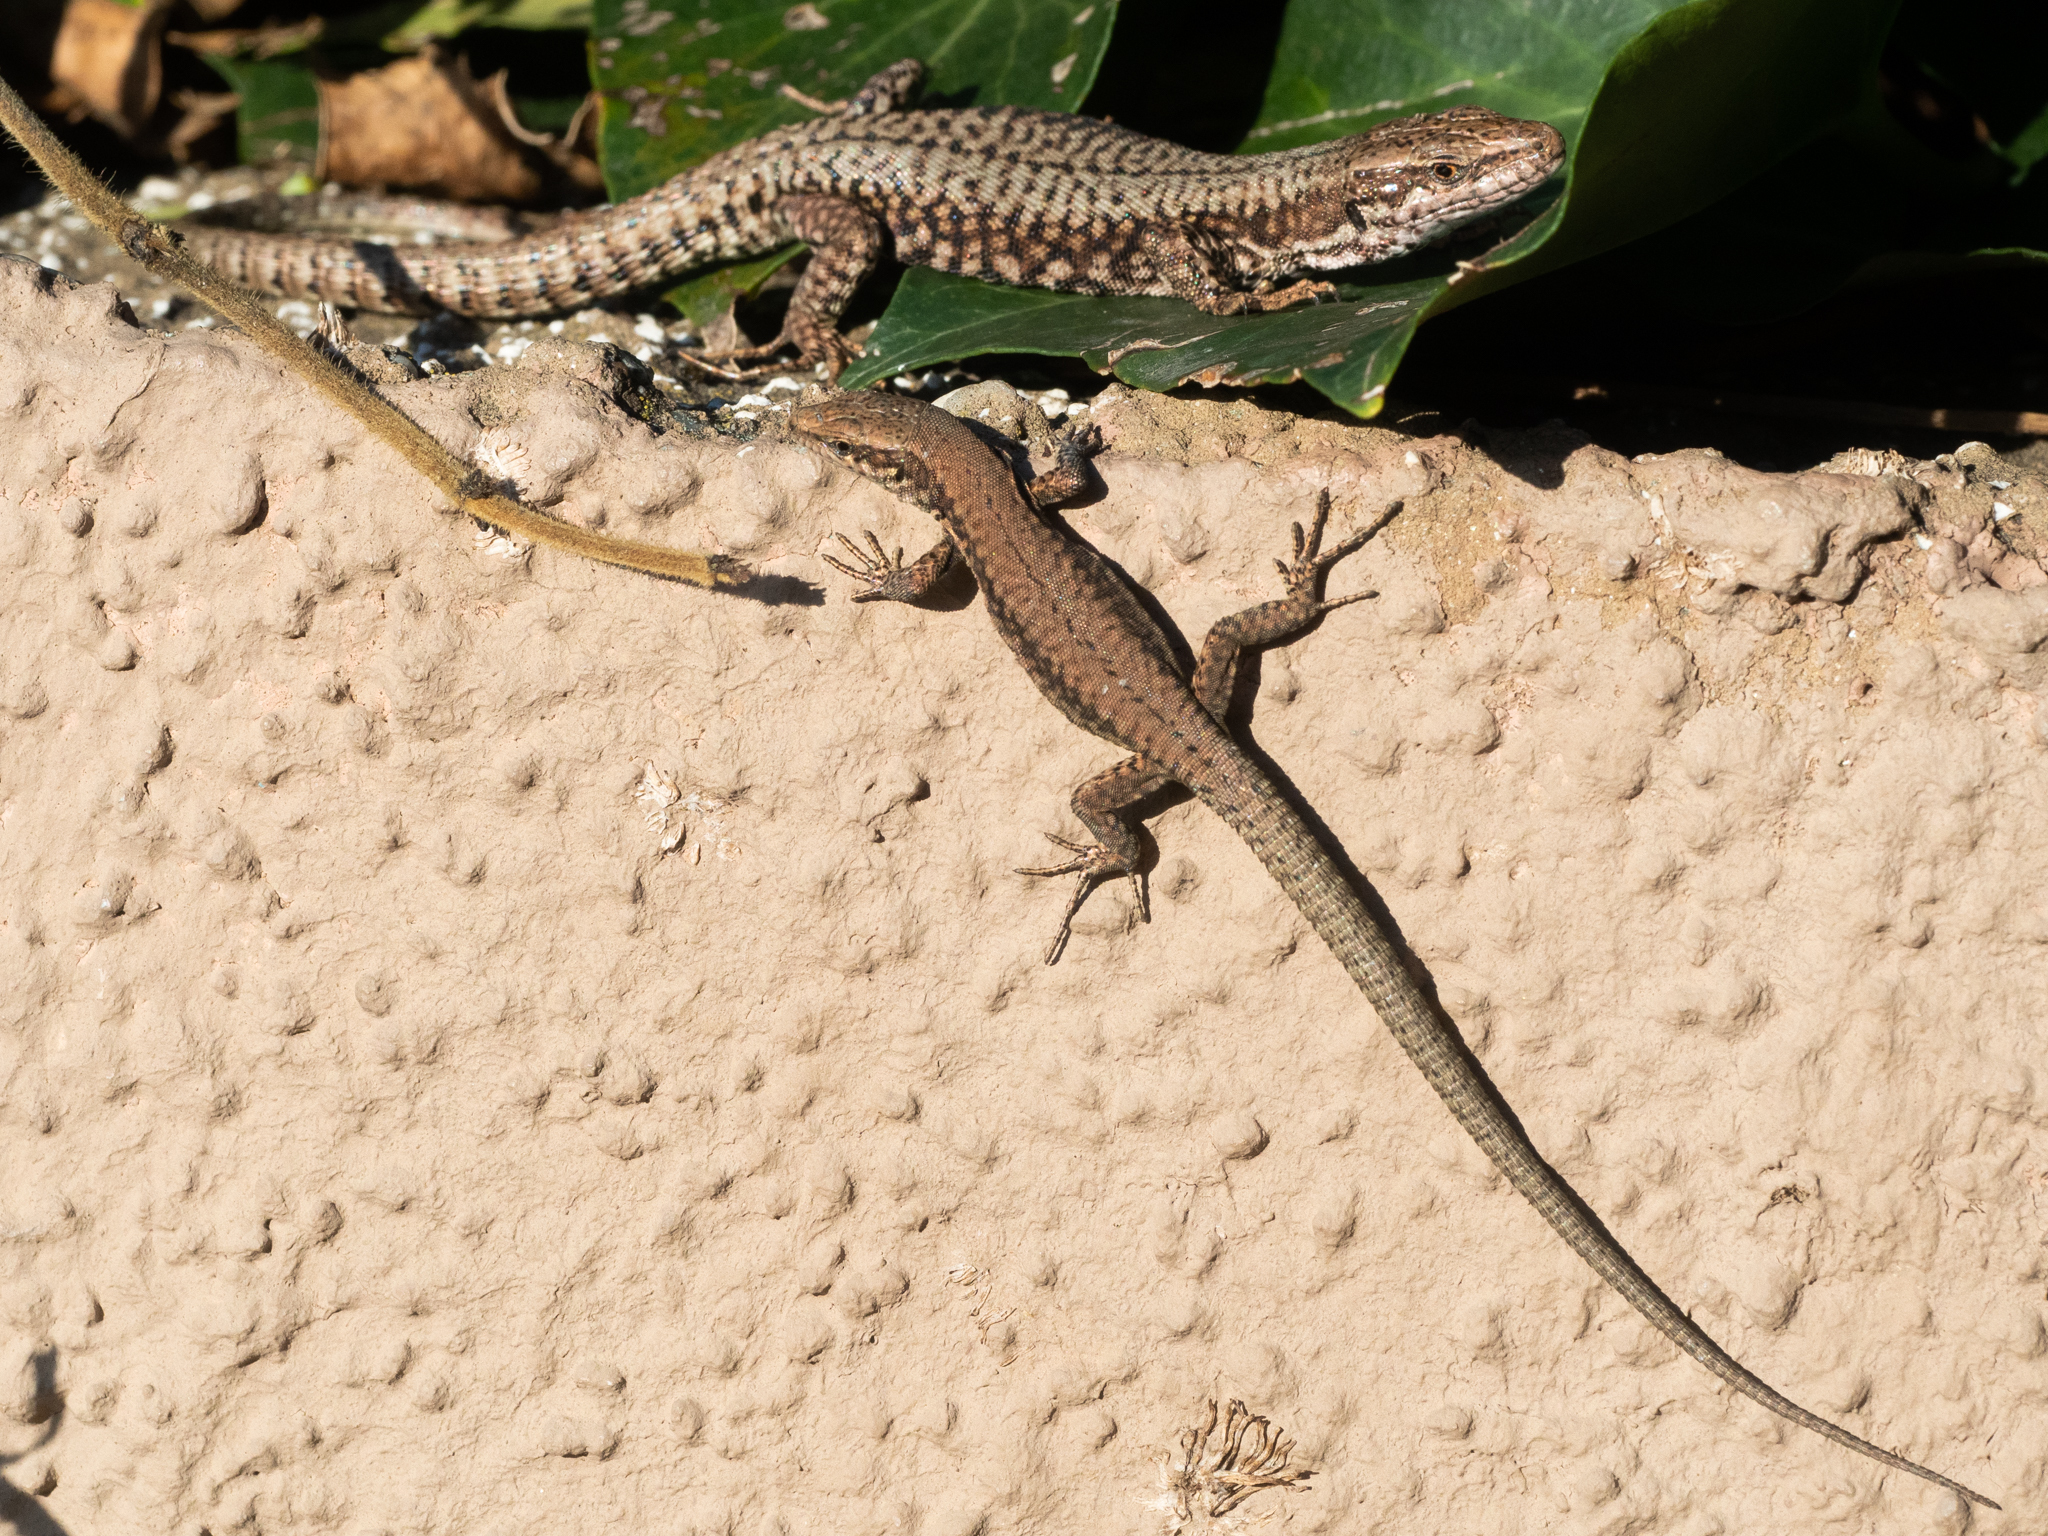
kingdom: Animalia
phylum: Chordata
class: Squamata
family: Lacertidae
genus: Podarcis
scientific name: Podarcis muralis
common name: Common wall lizard
